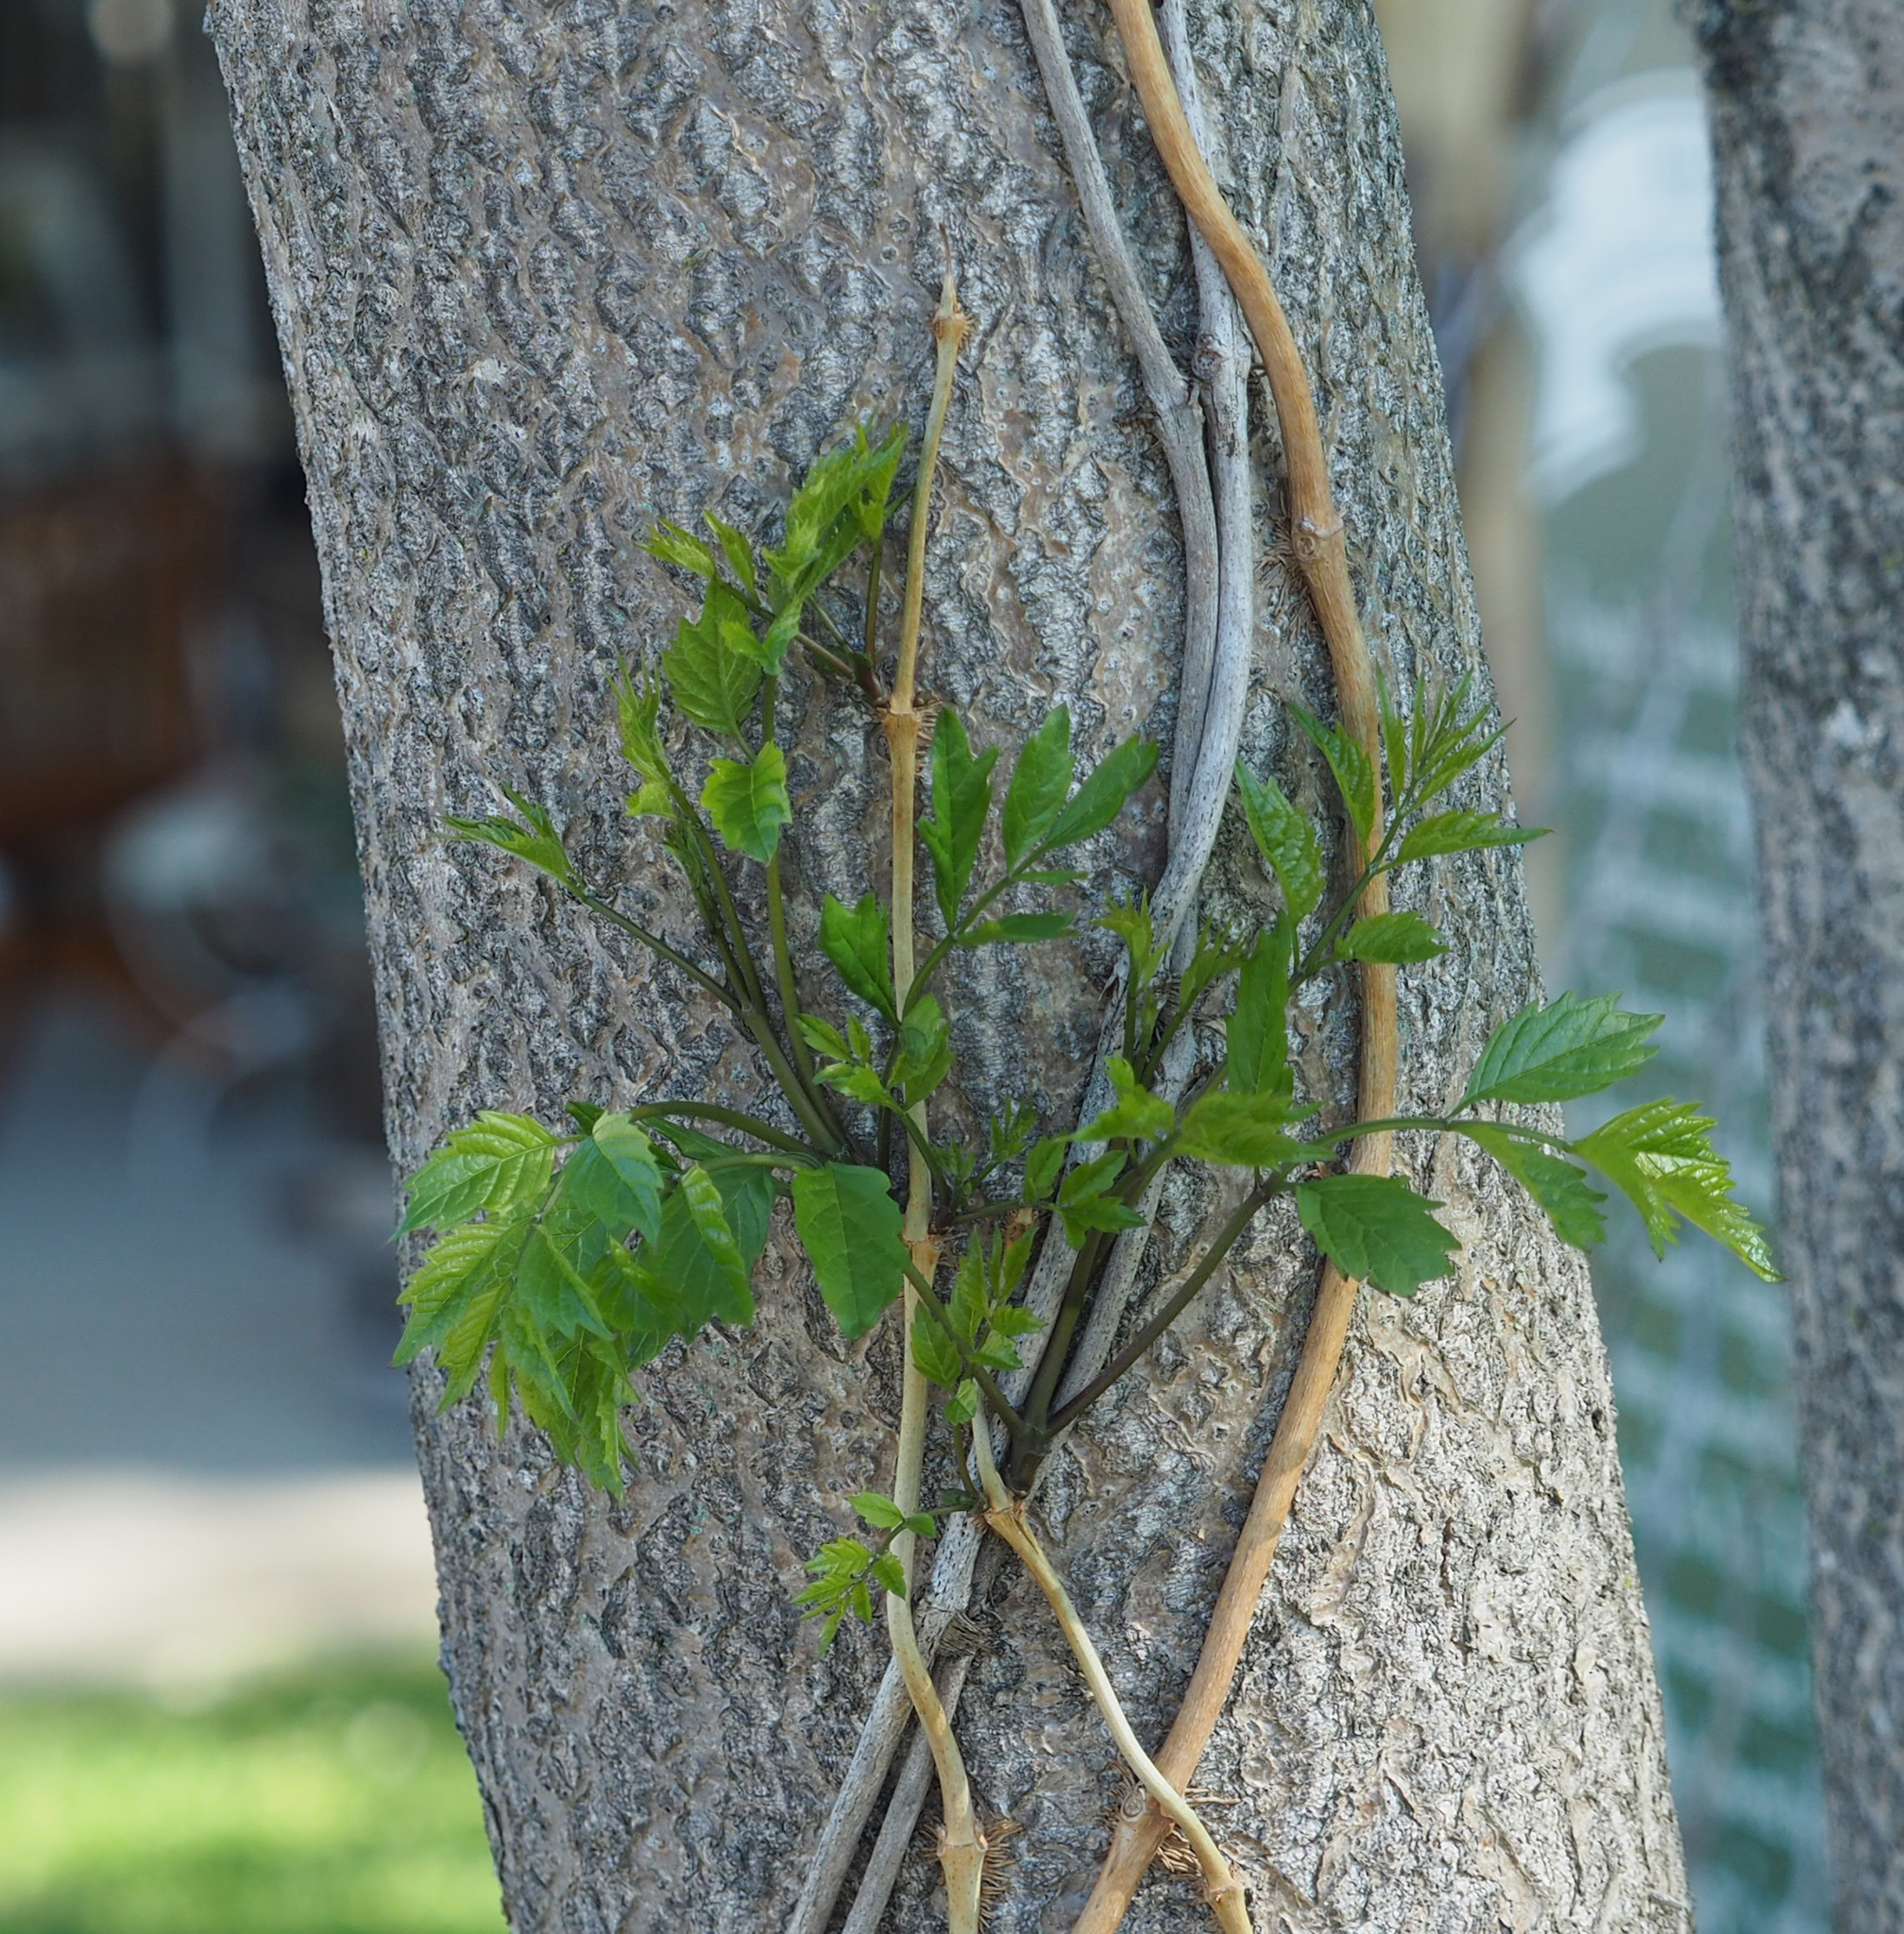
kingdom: Plantae
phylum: Tracheophyta
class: Magnoliopsida
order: Lamiales
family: Bignoniaceae
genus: Campsis
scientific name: Campsis radicans
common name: Trumpet-creeper
